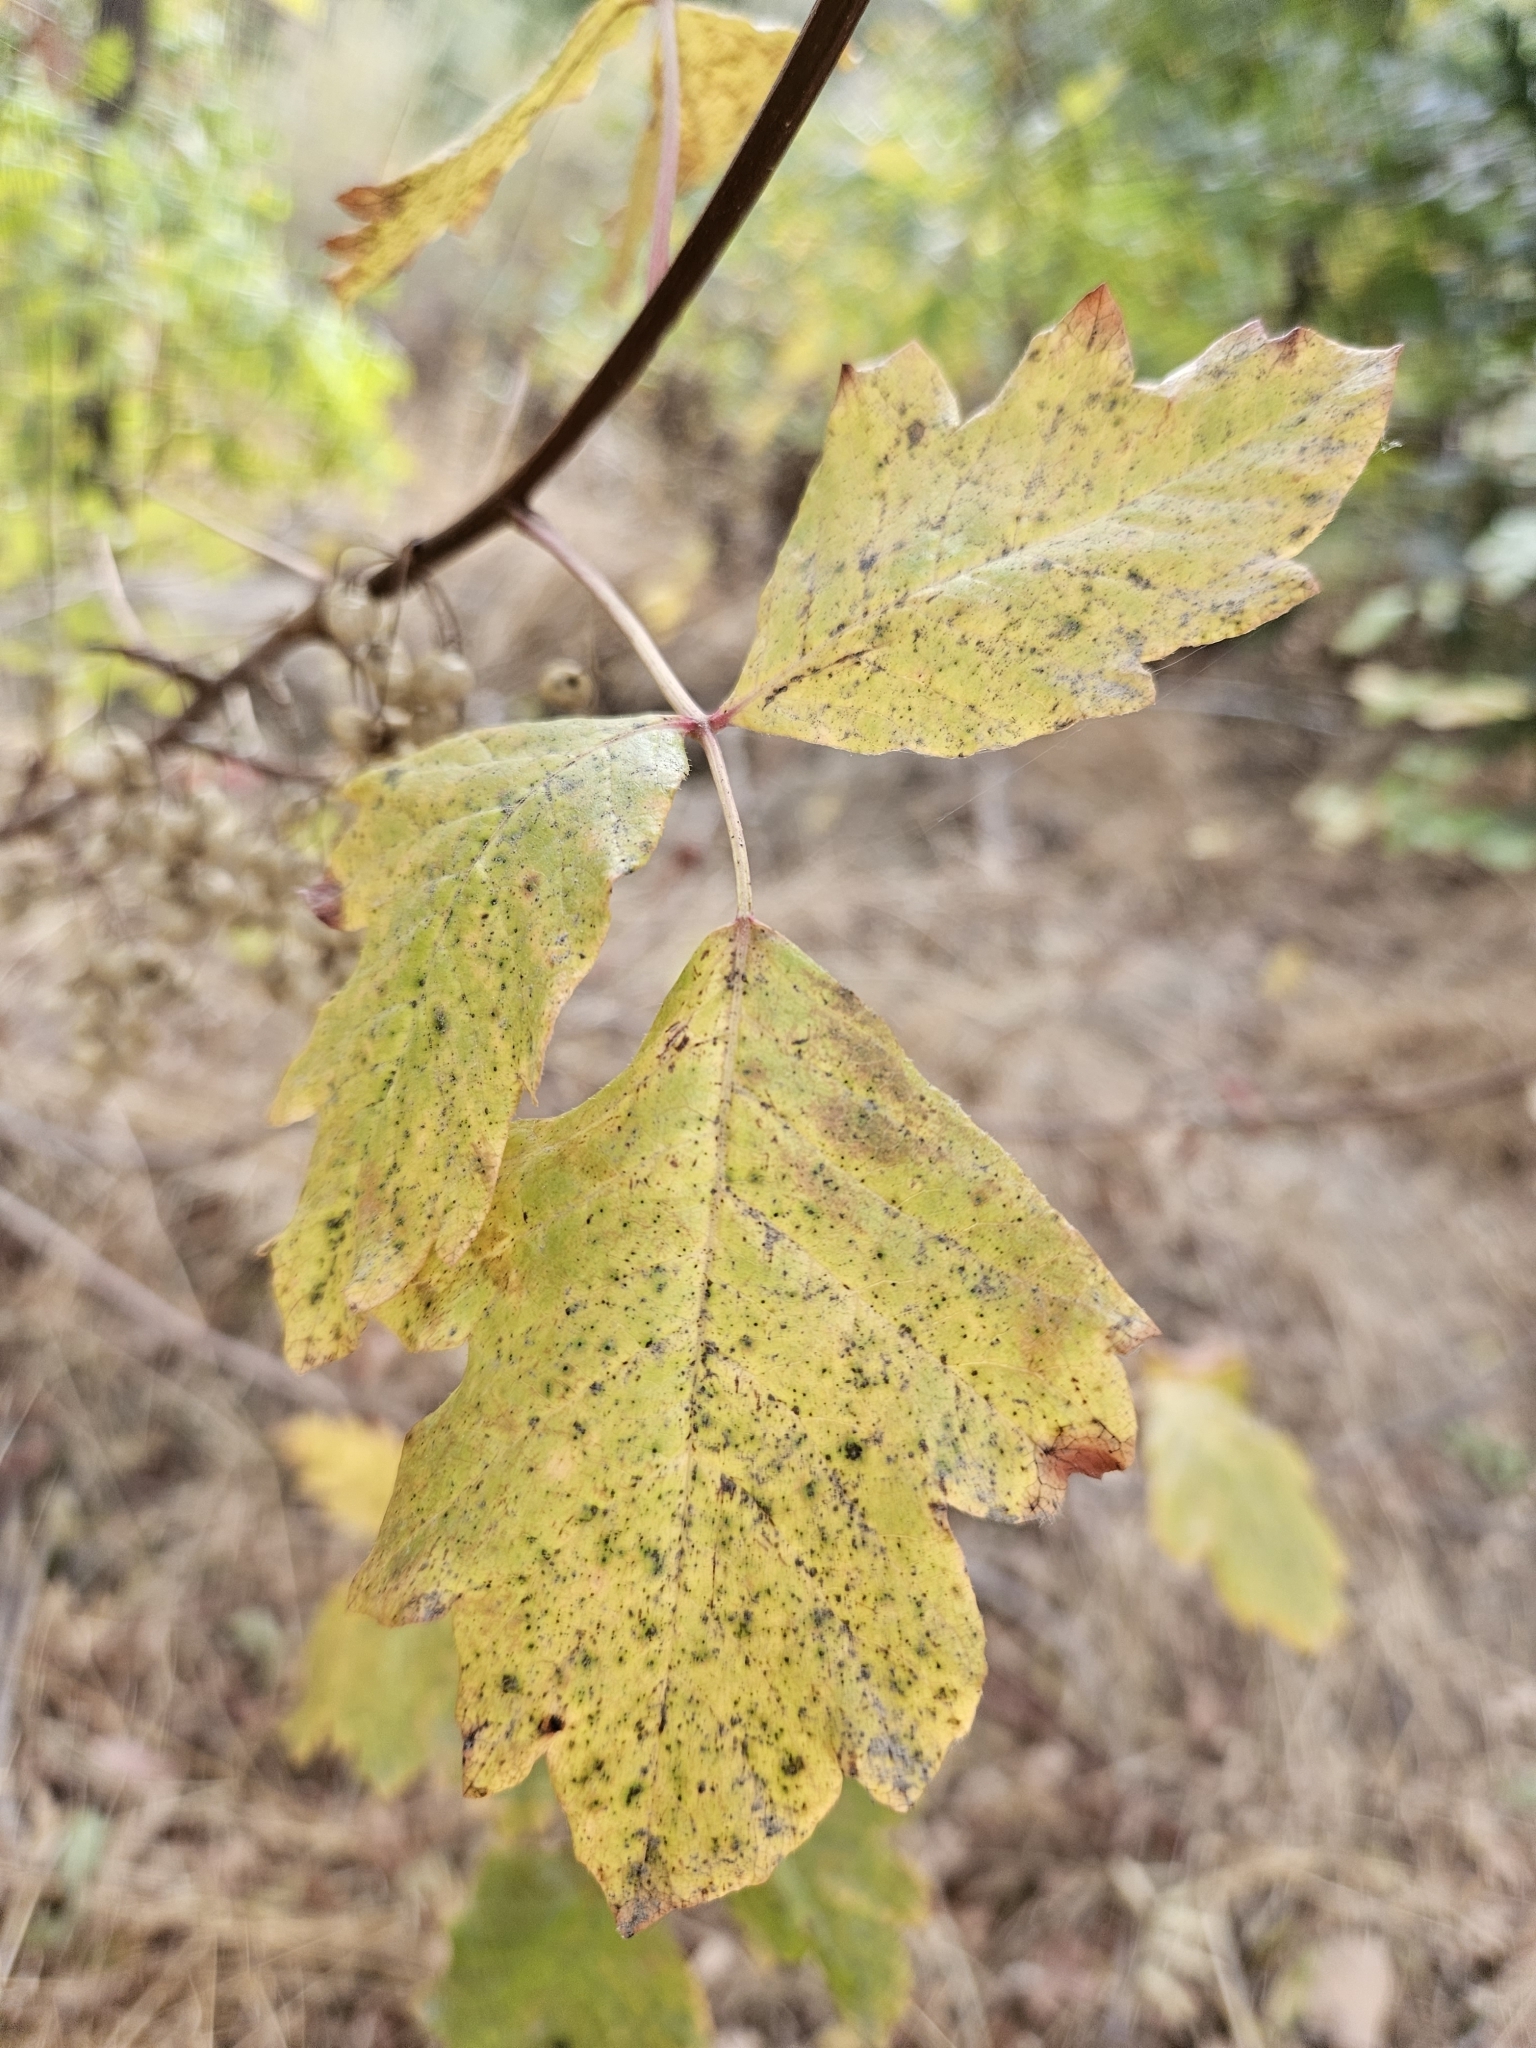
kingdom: Plantae
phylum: Tracheophyta
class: Magnoliopsida
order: Sapindales
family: Anacardiaceae
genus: Toxicodendron
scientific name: Toxicodendron diversilobum
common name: Pacific poison-oak
